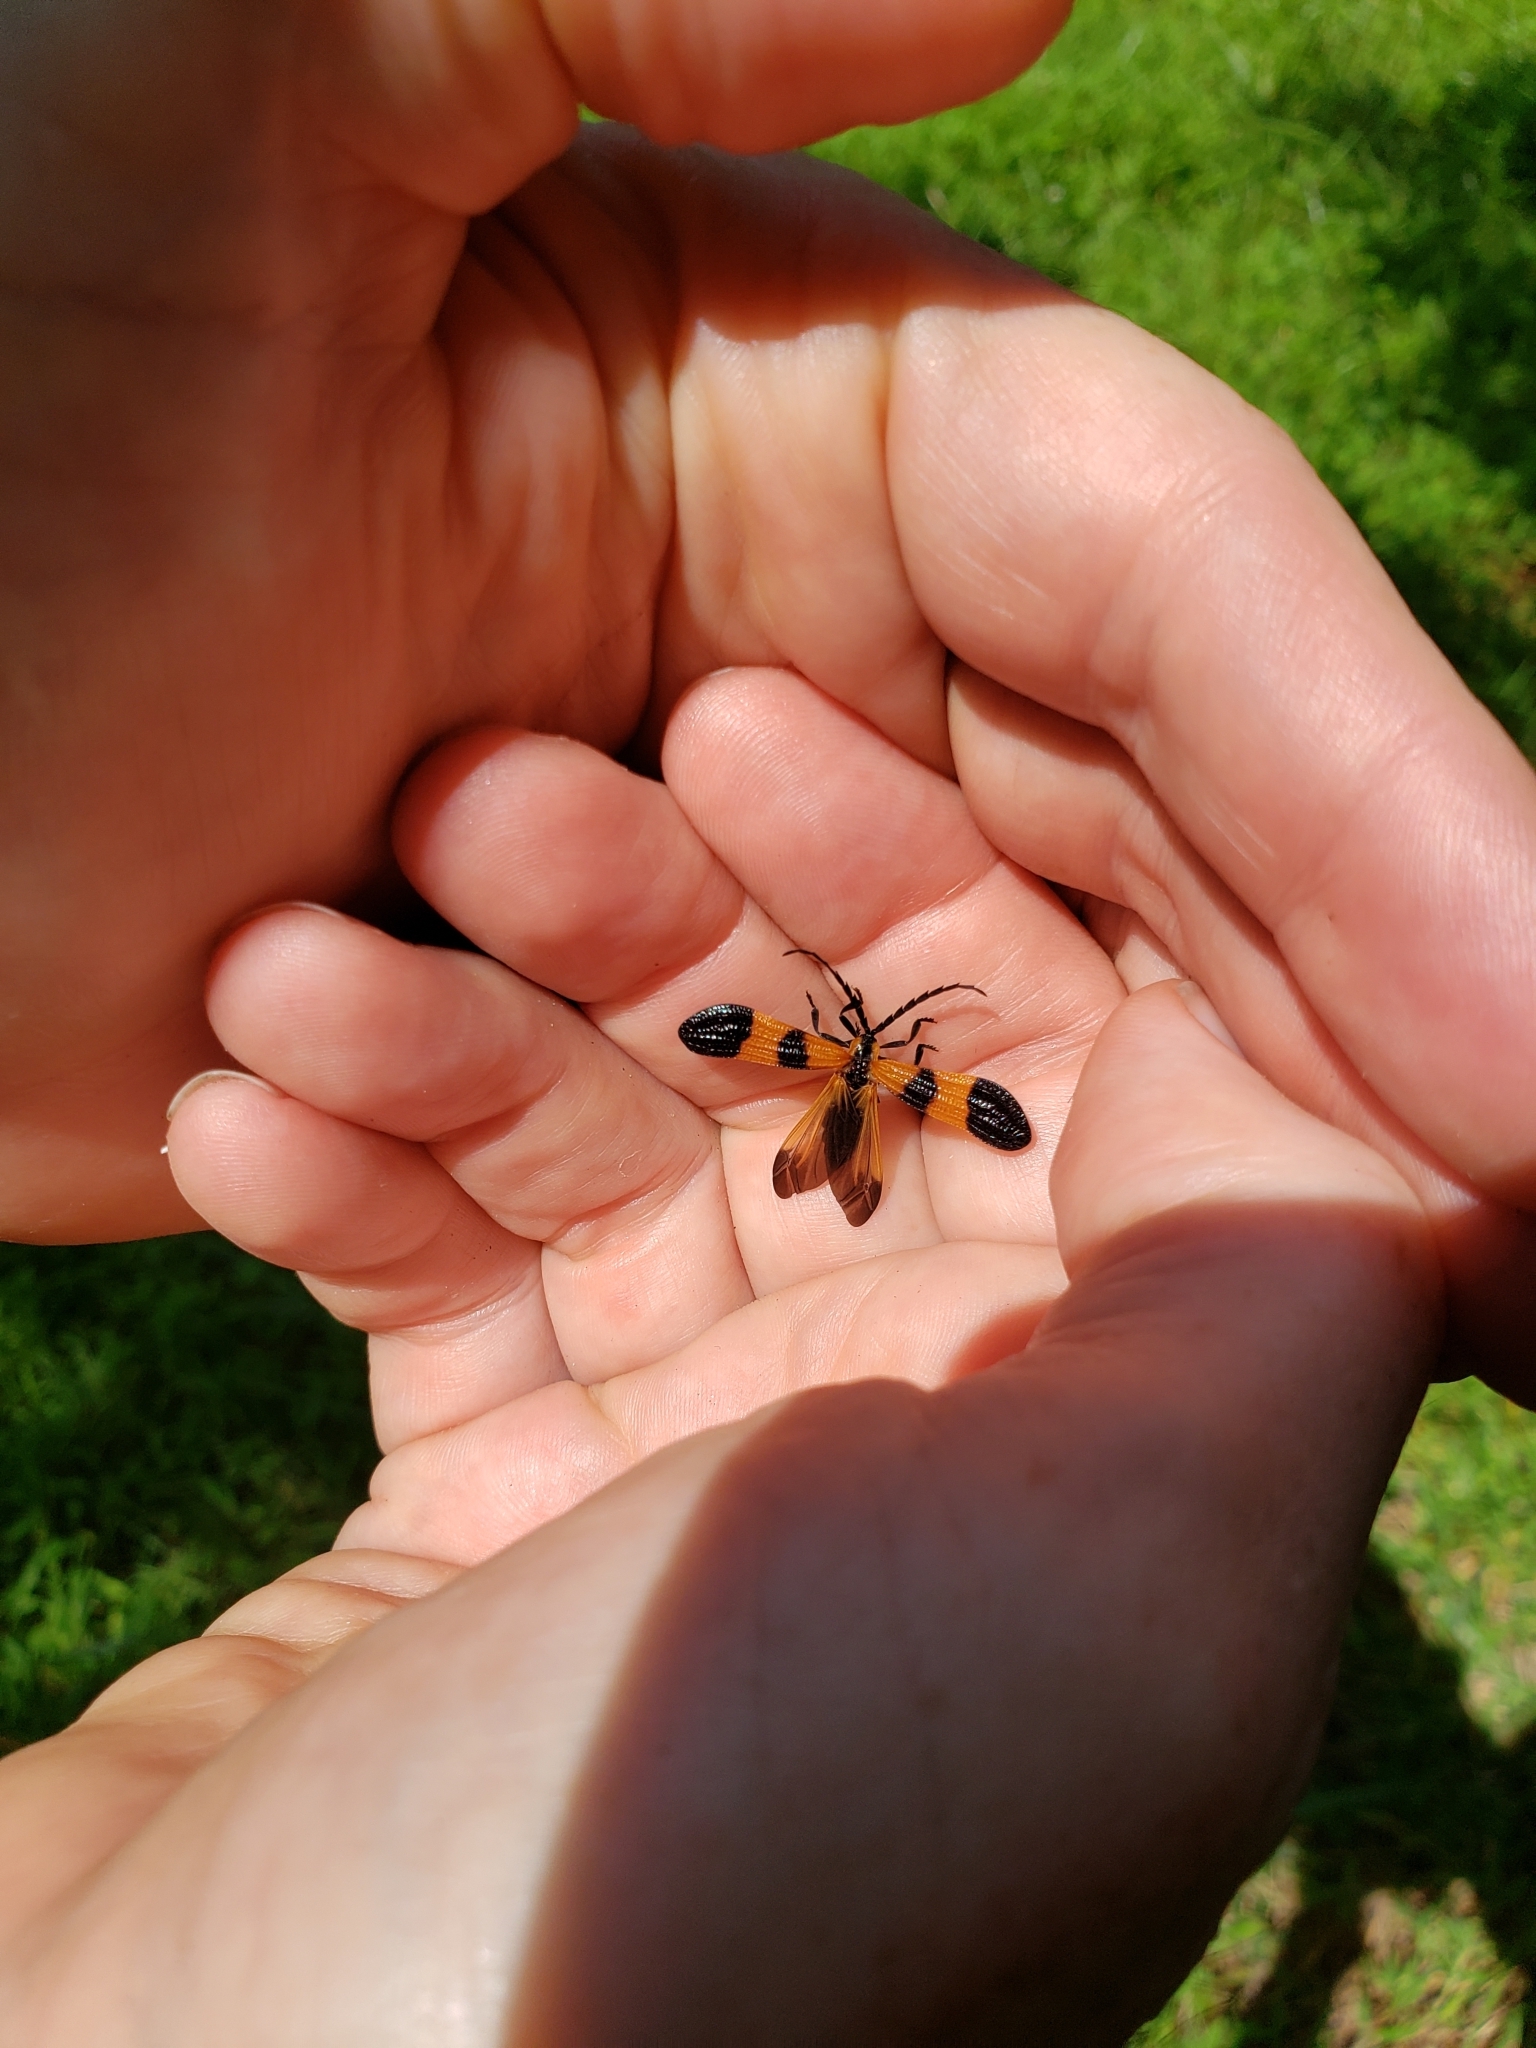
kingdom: Animalia
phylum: Arthropoda
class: Insecta
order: Coleoptera
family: Lycidae
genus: Calopteron
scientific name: Calopteron terminale
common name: End band net-winged beetle
